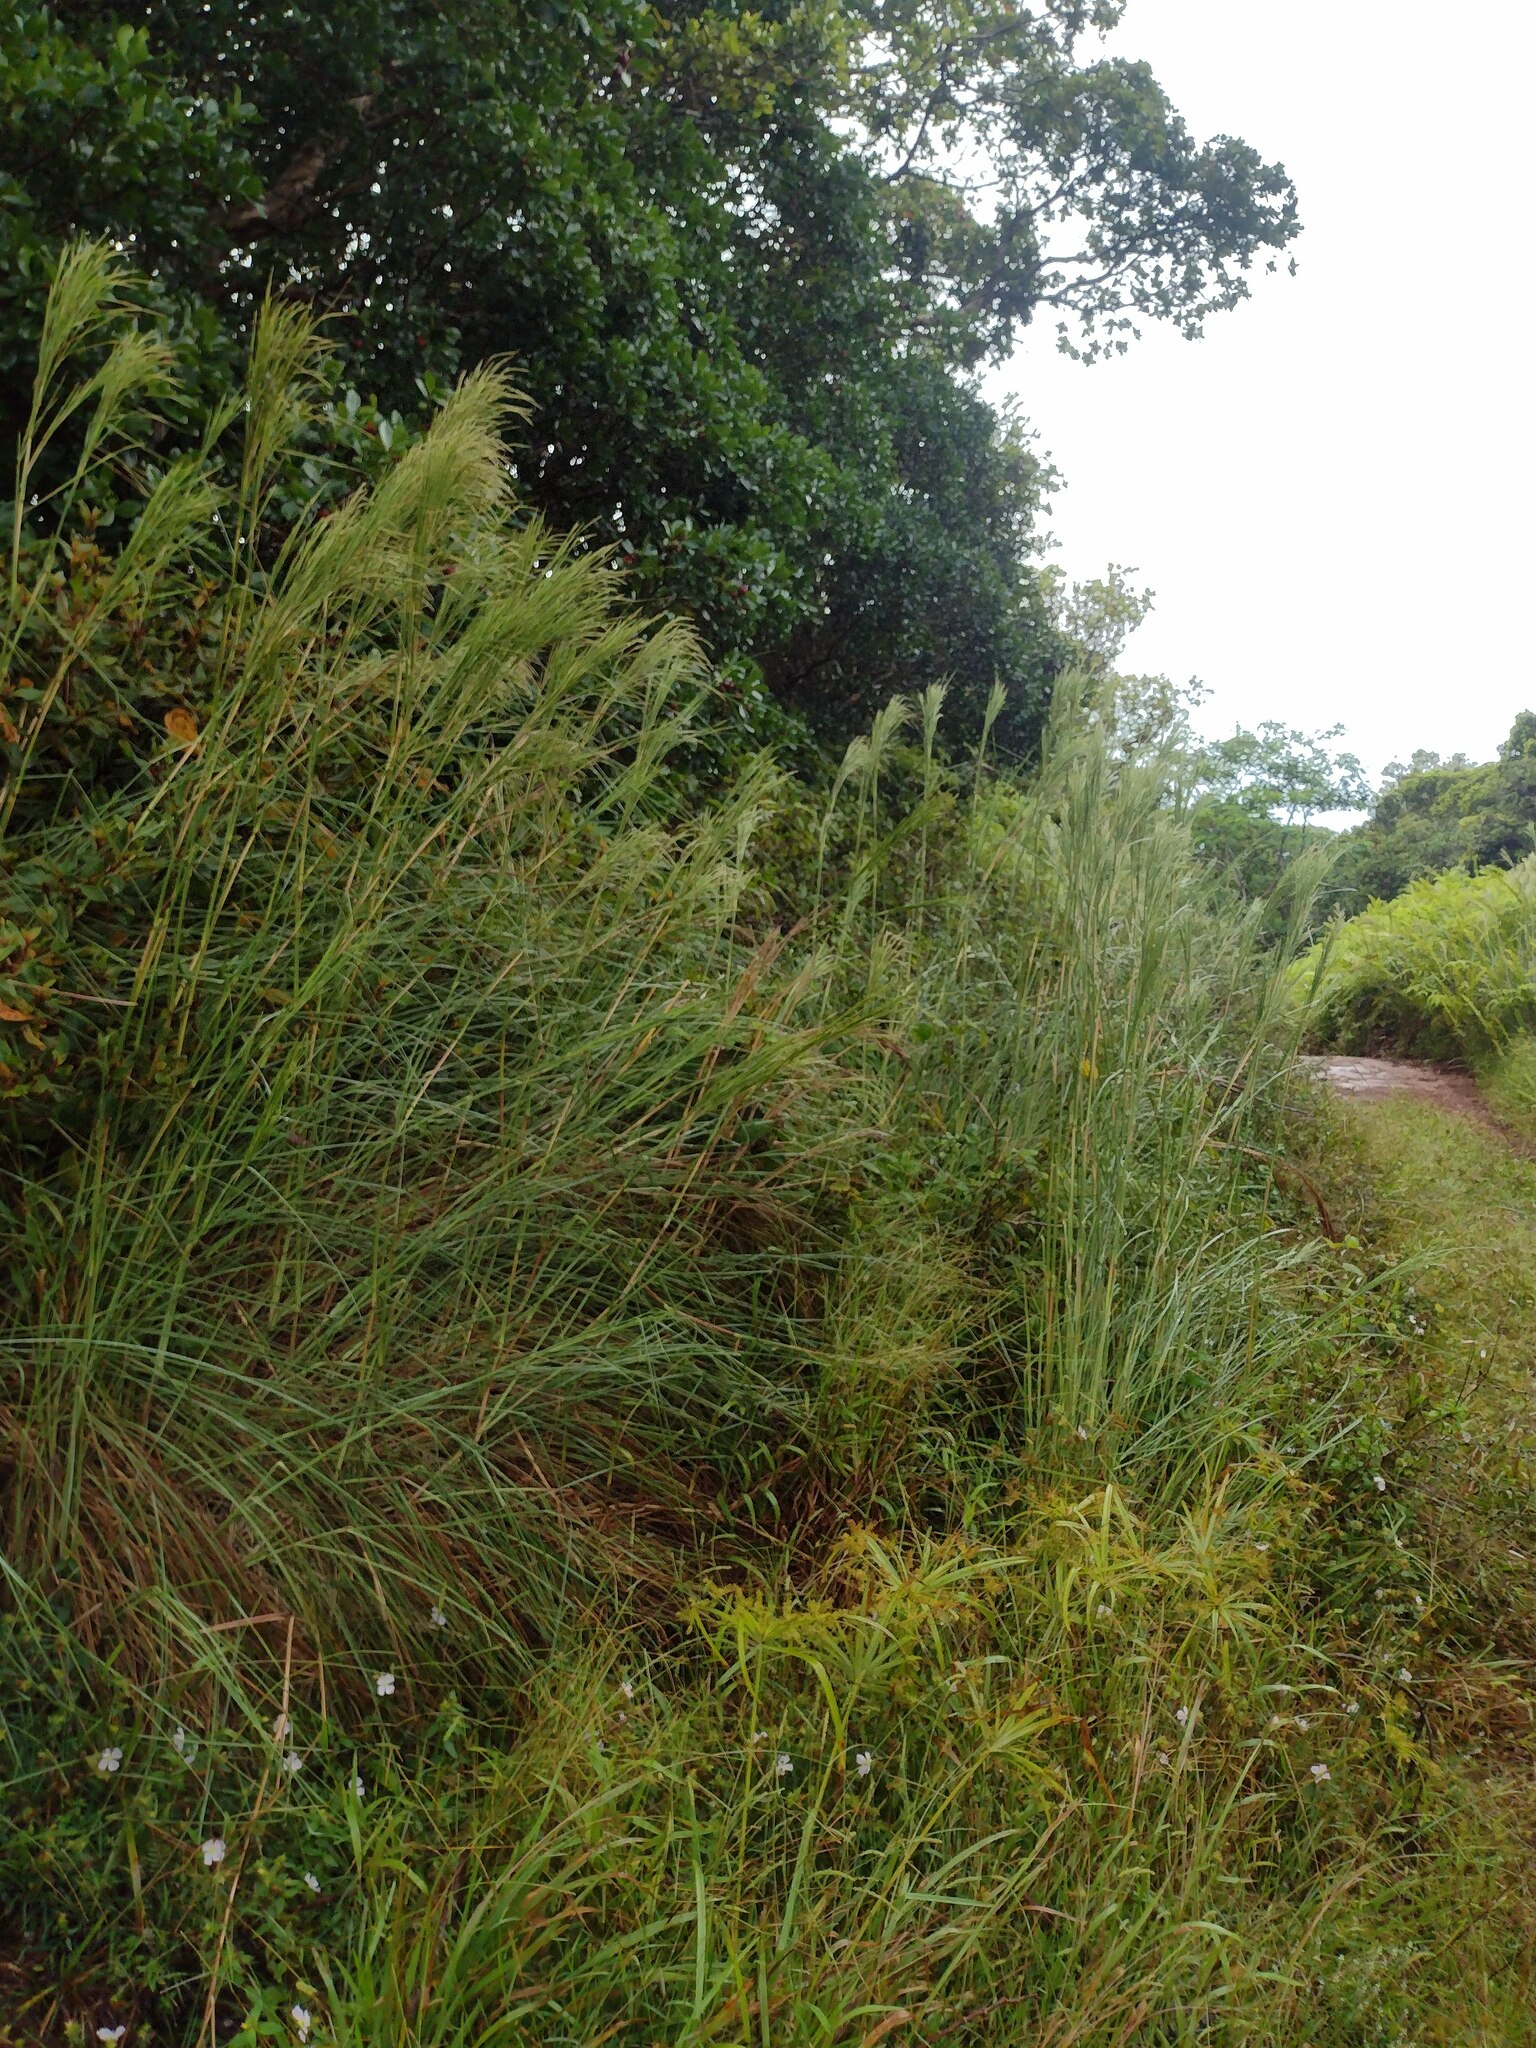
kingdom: Plantae
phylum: Tracheophyta
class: Liliopsida
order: Poales
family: Poaceae
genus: Andropogon
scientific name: Andropogon bicornis
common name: West indian foxtail grass
